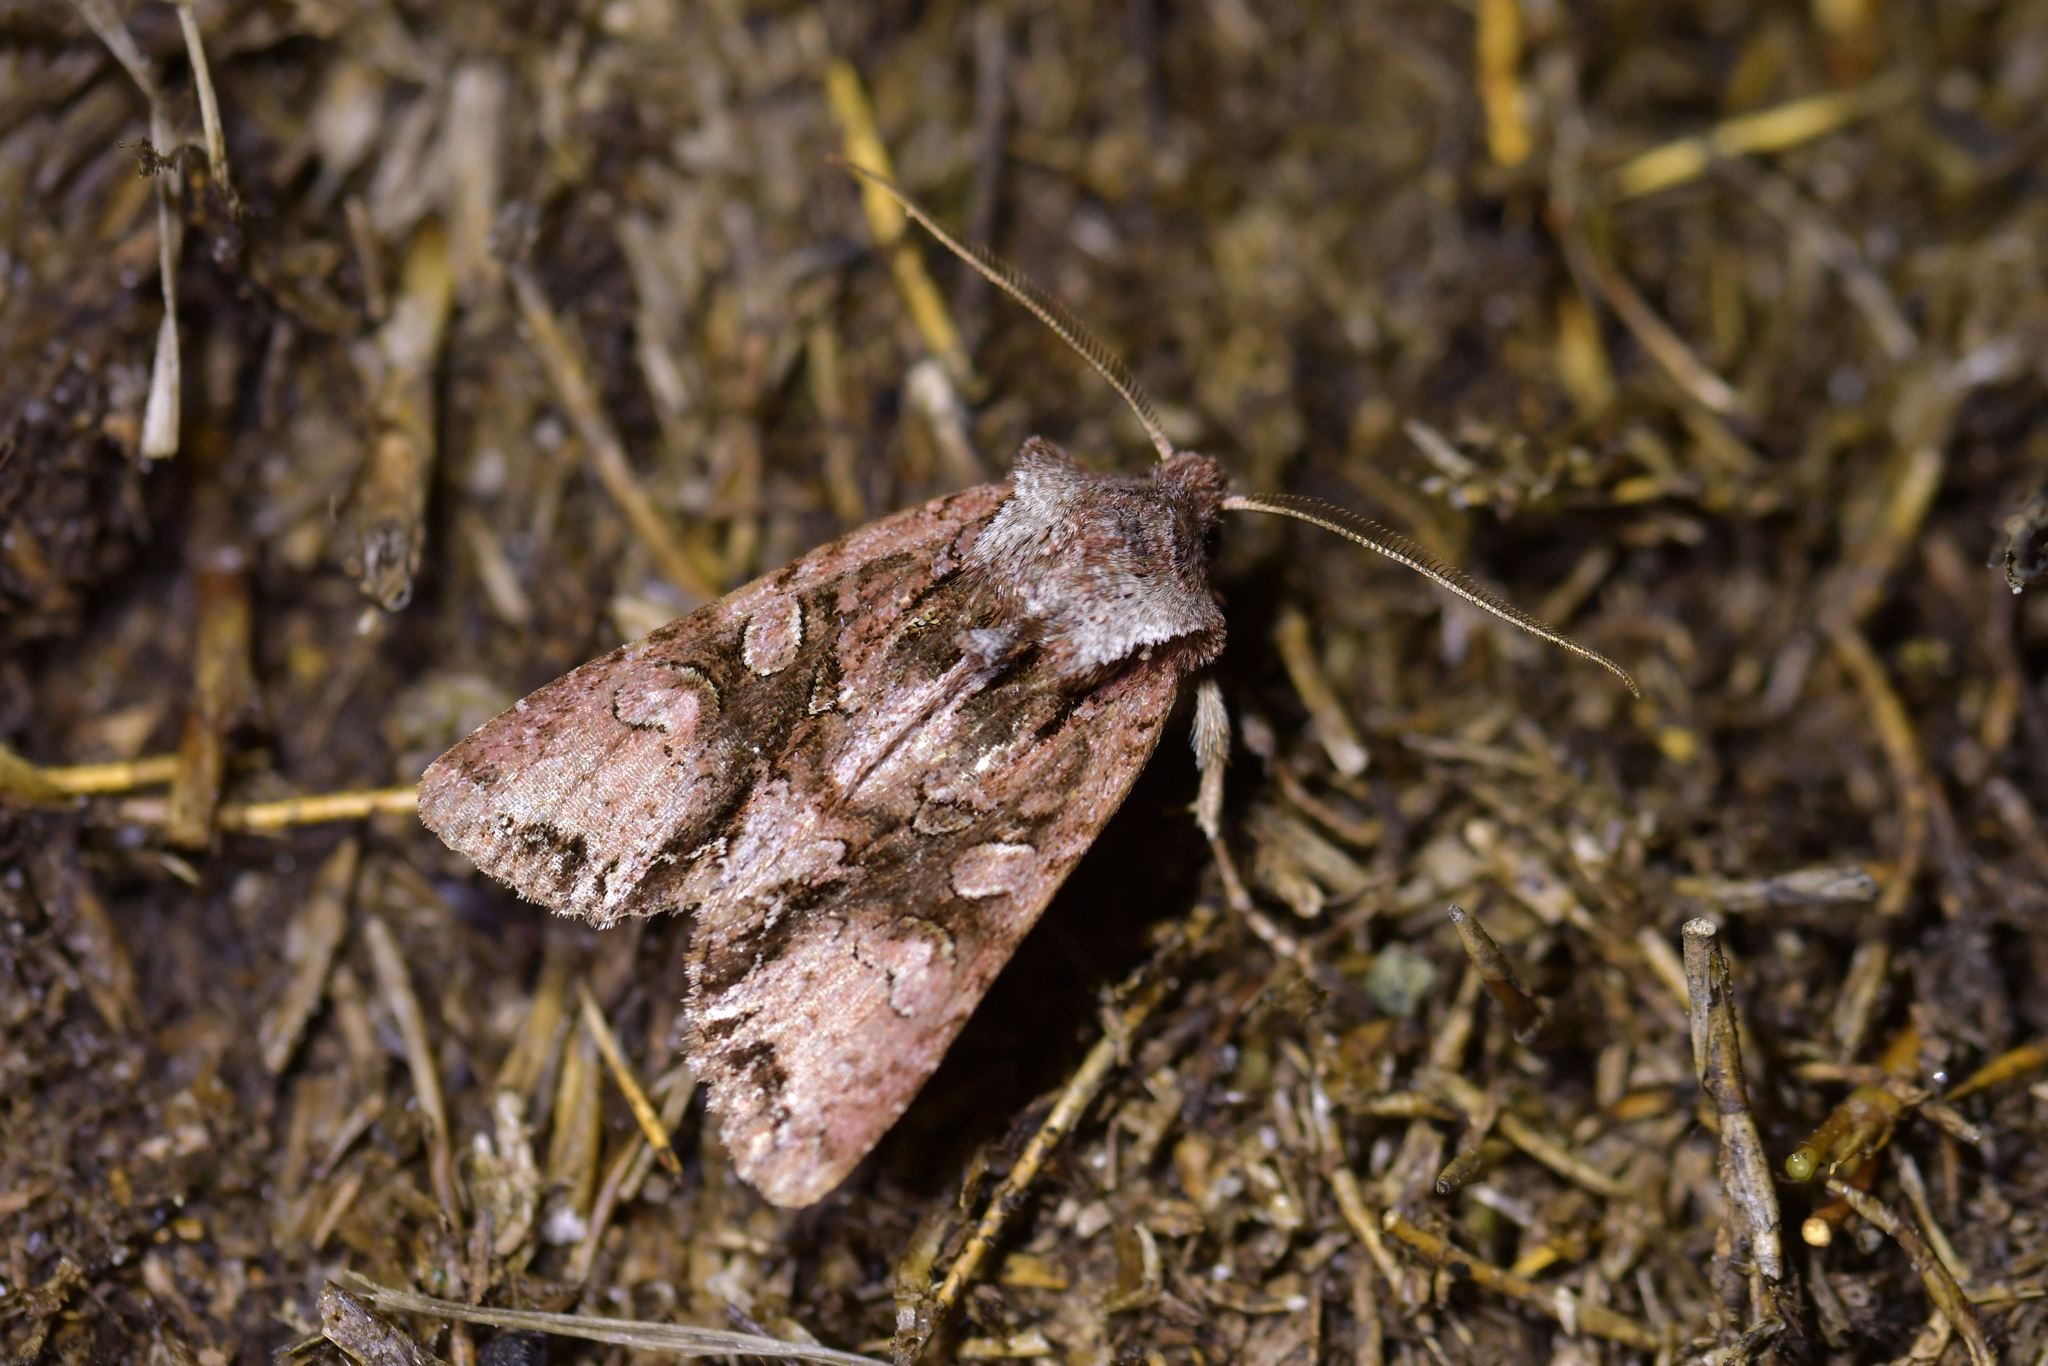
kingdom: Animalia
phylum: Arthropoda
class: Insecta
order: Lepidoptera
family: Noctuidae
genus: Ichneutica
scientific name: Ichneutica skelloni
